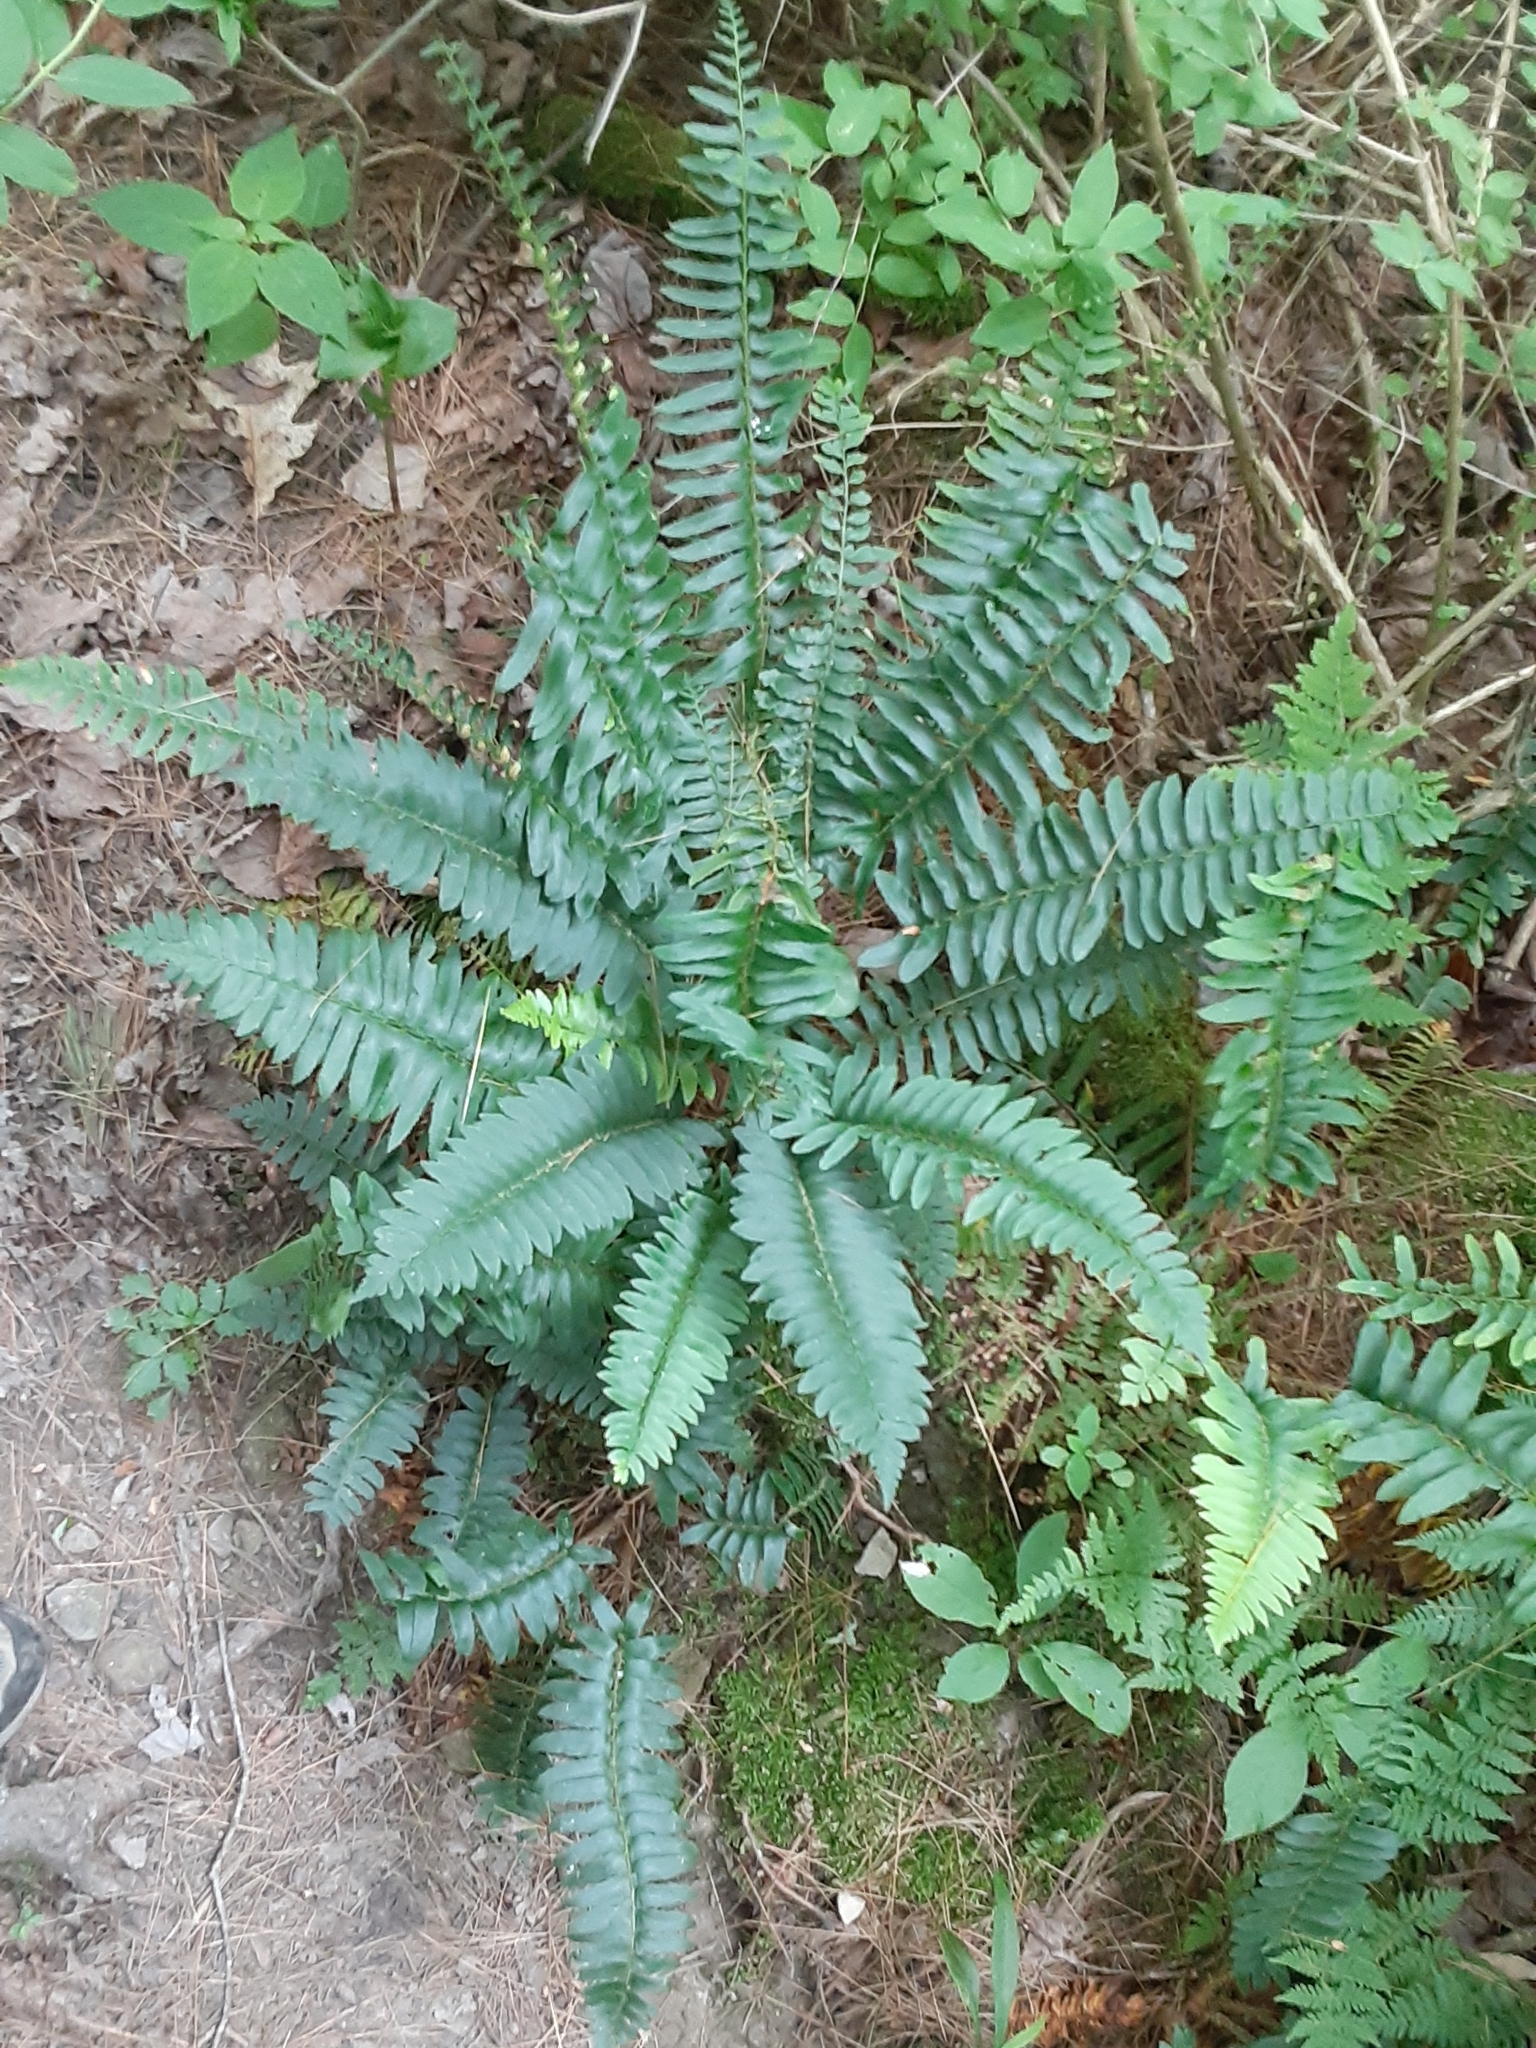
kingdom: Plantae
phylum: Tracheophyta
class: Polypodiopsida
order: Polypodiales
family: Dryopteridaceae
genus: Polystichum
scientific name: Polystichum acrostichoides
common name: Christmas fern
